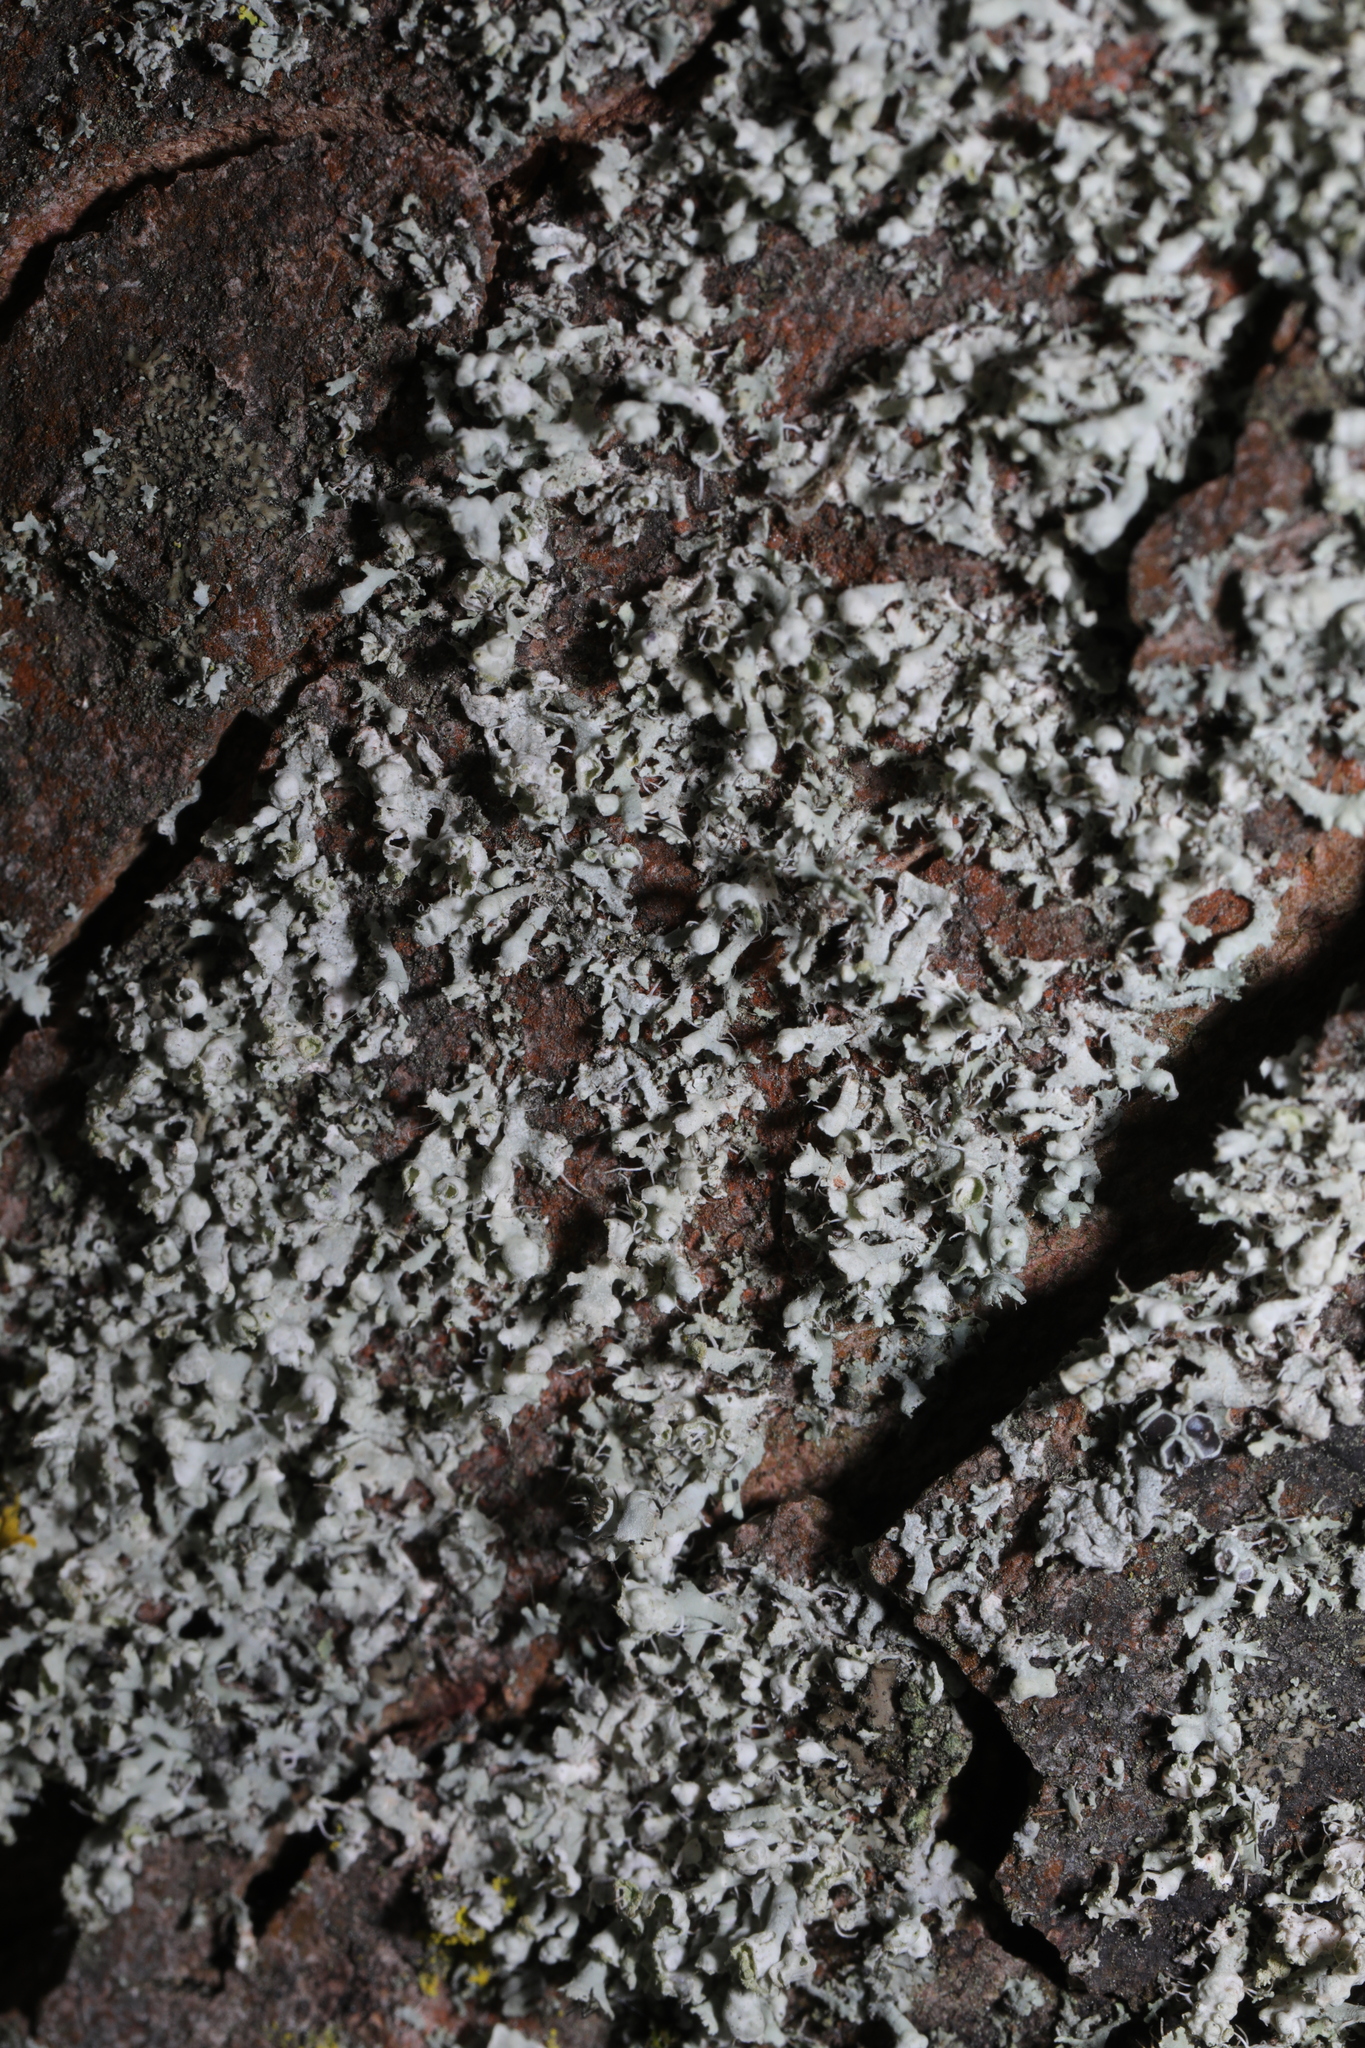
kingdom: Fungi
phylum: Ascomycota
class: Lecanoromycetes
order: Caliciales
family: Physciaceae
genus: Physcia
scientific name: Physcia adscendens
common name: Hooded rosette lichen
